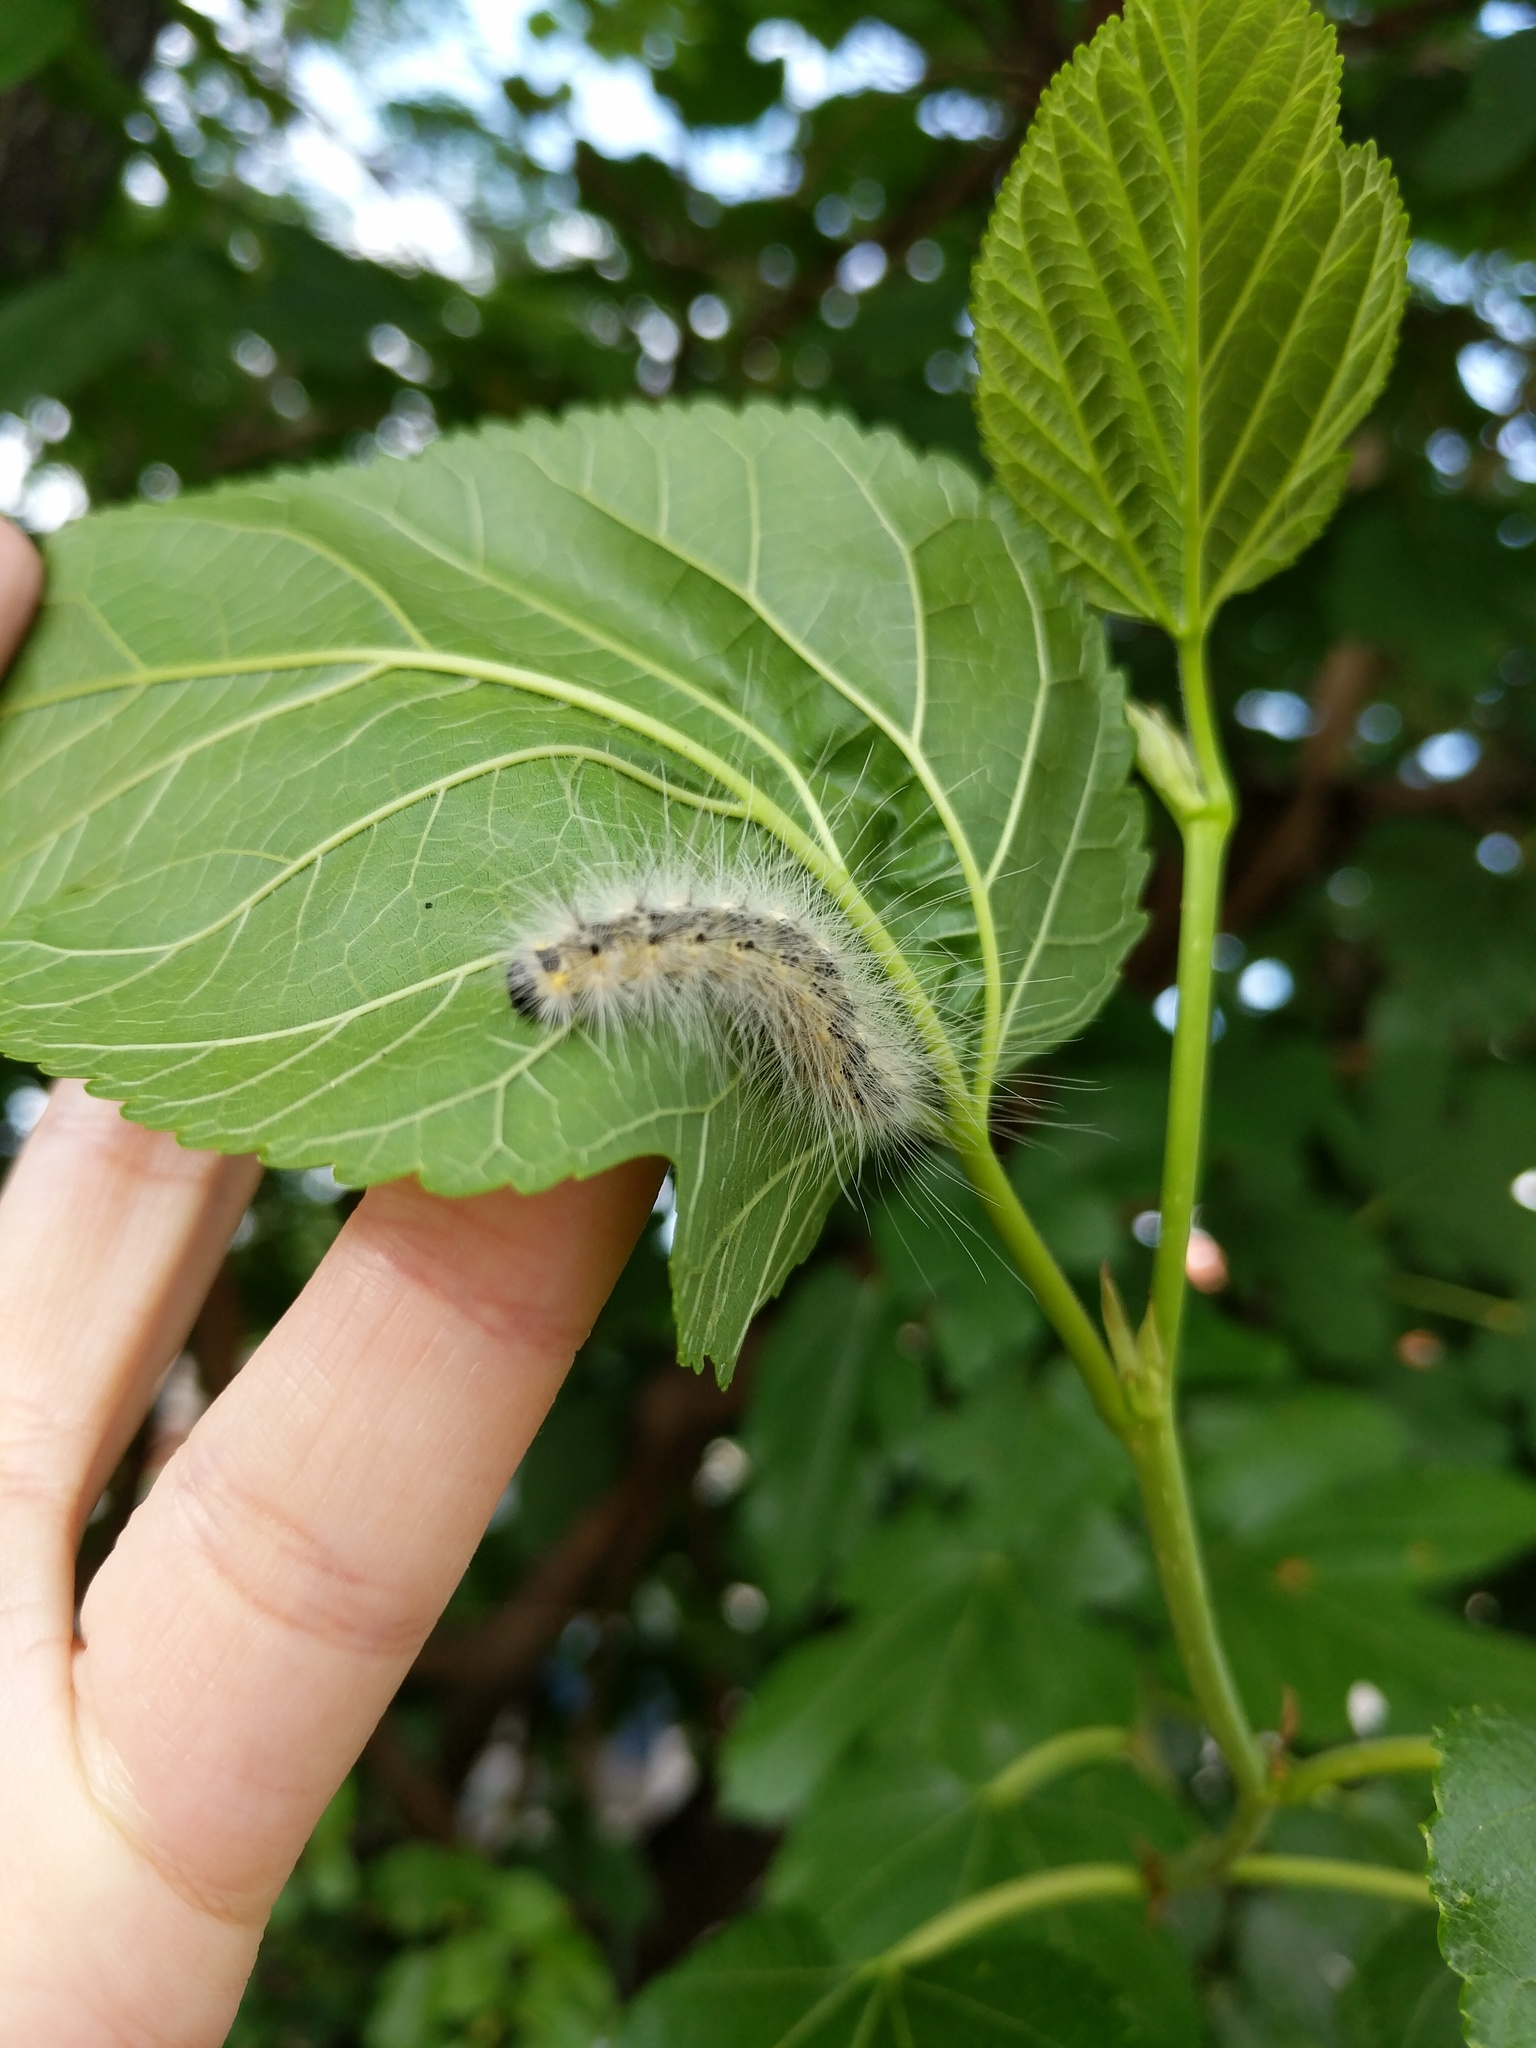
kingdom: Animalia
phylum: Arthropoda
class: Insecta
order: Lepidoptera
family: Erebidae
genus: Hyphantria
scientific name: Hyphantria cunea
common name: American white moth
